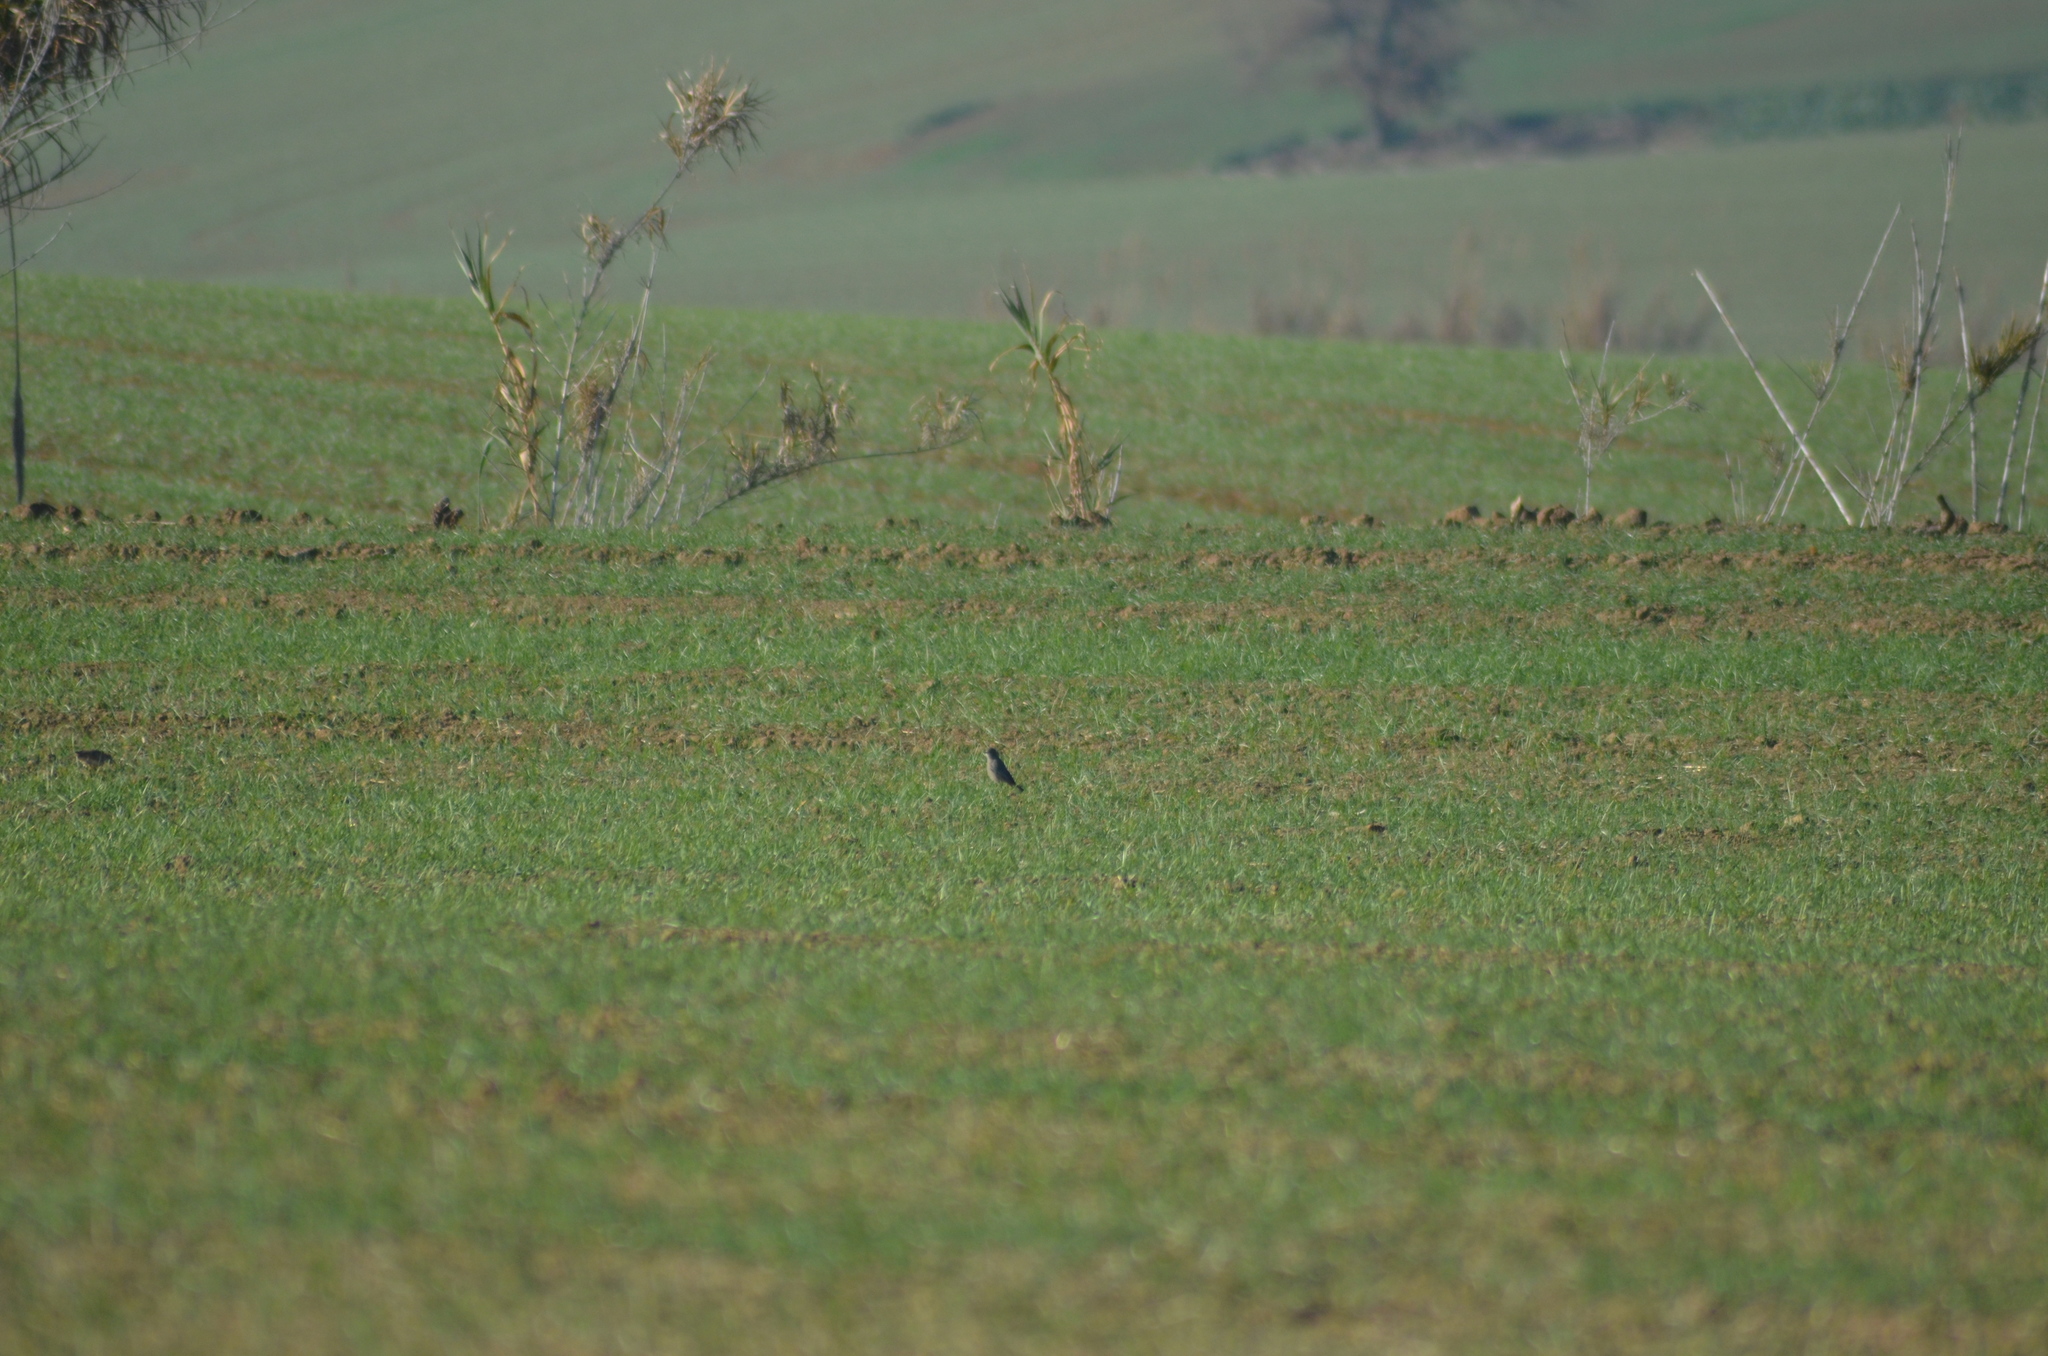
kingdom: Animalia
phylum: Chordata
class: Aves
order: Passeriformes
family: Muscicapidae
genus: Phoenicurus
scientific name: Phoenicurus ochruros
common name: Black redstart
